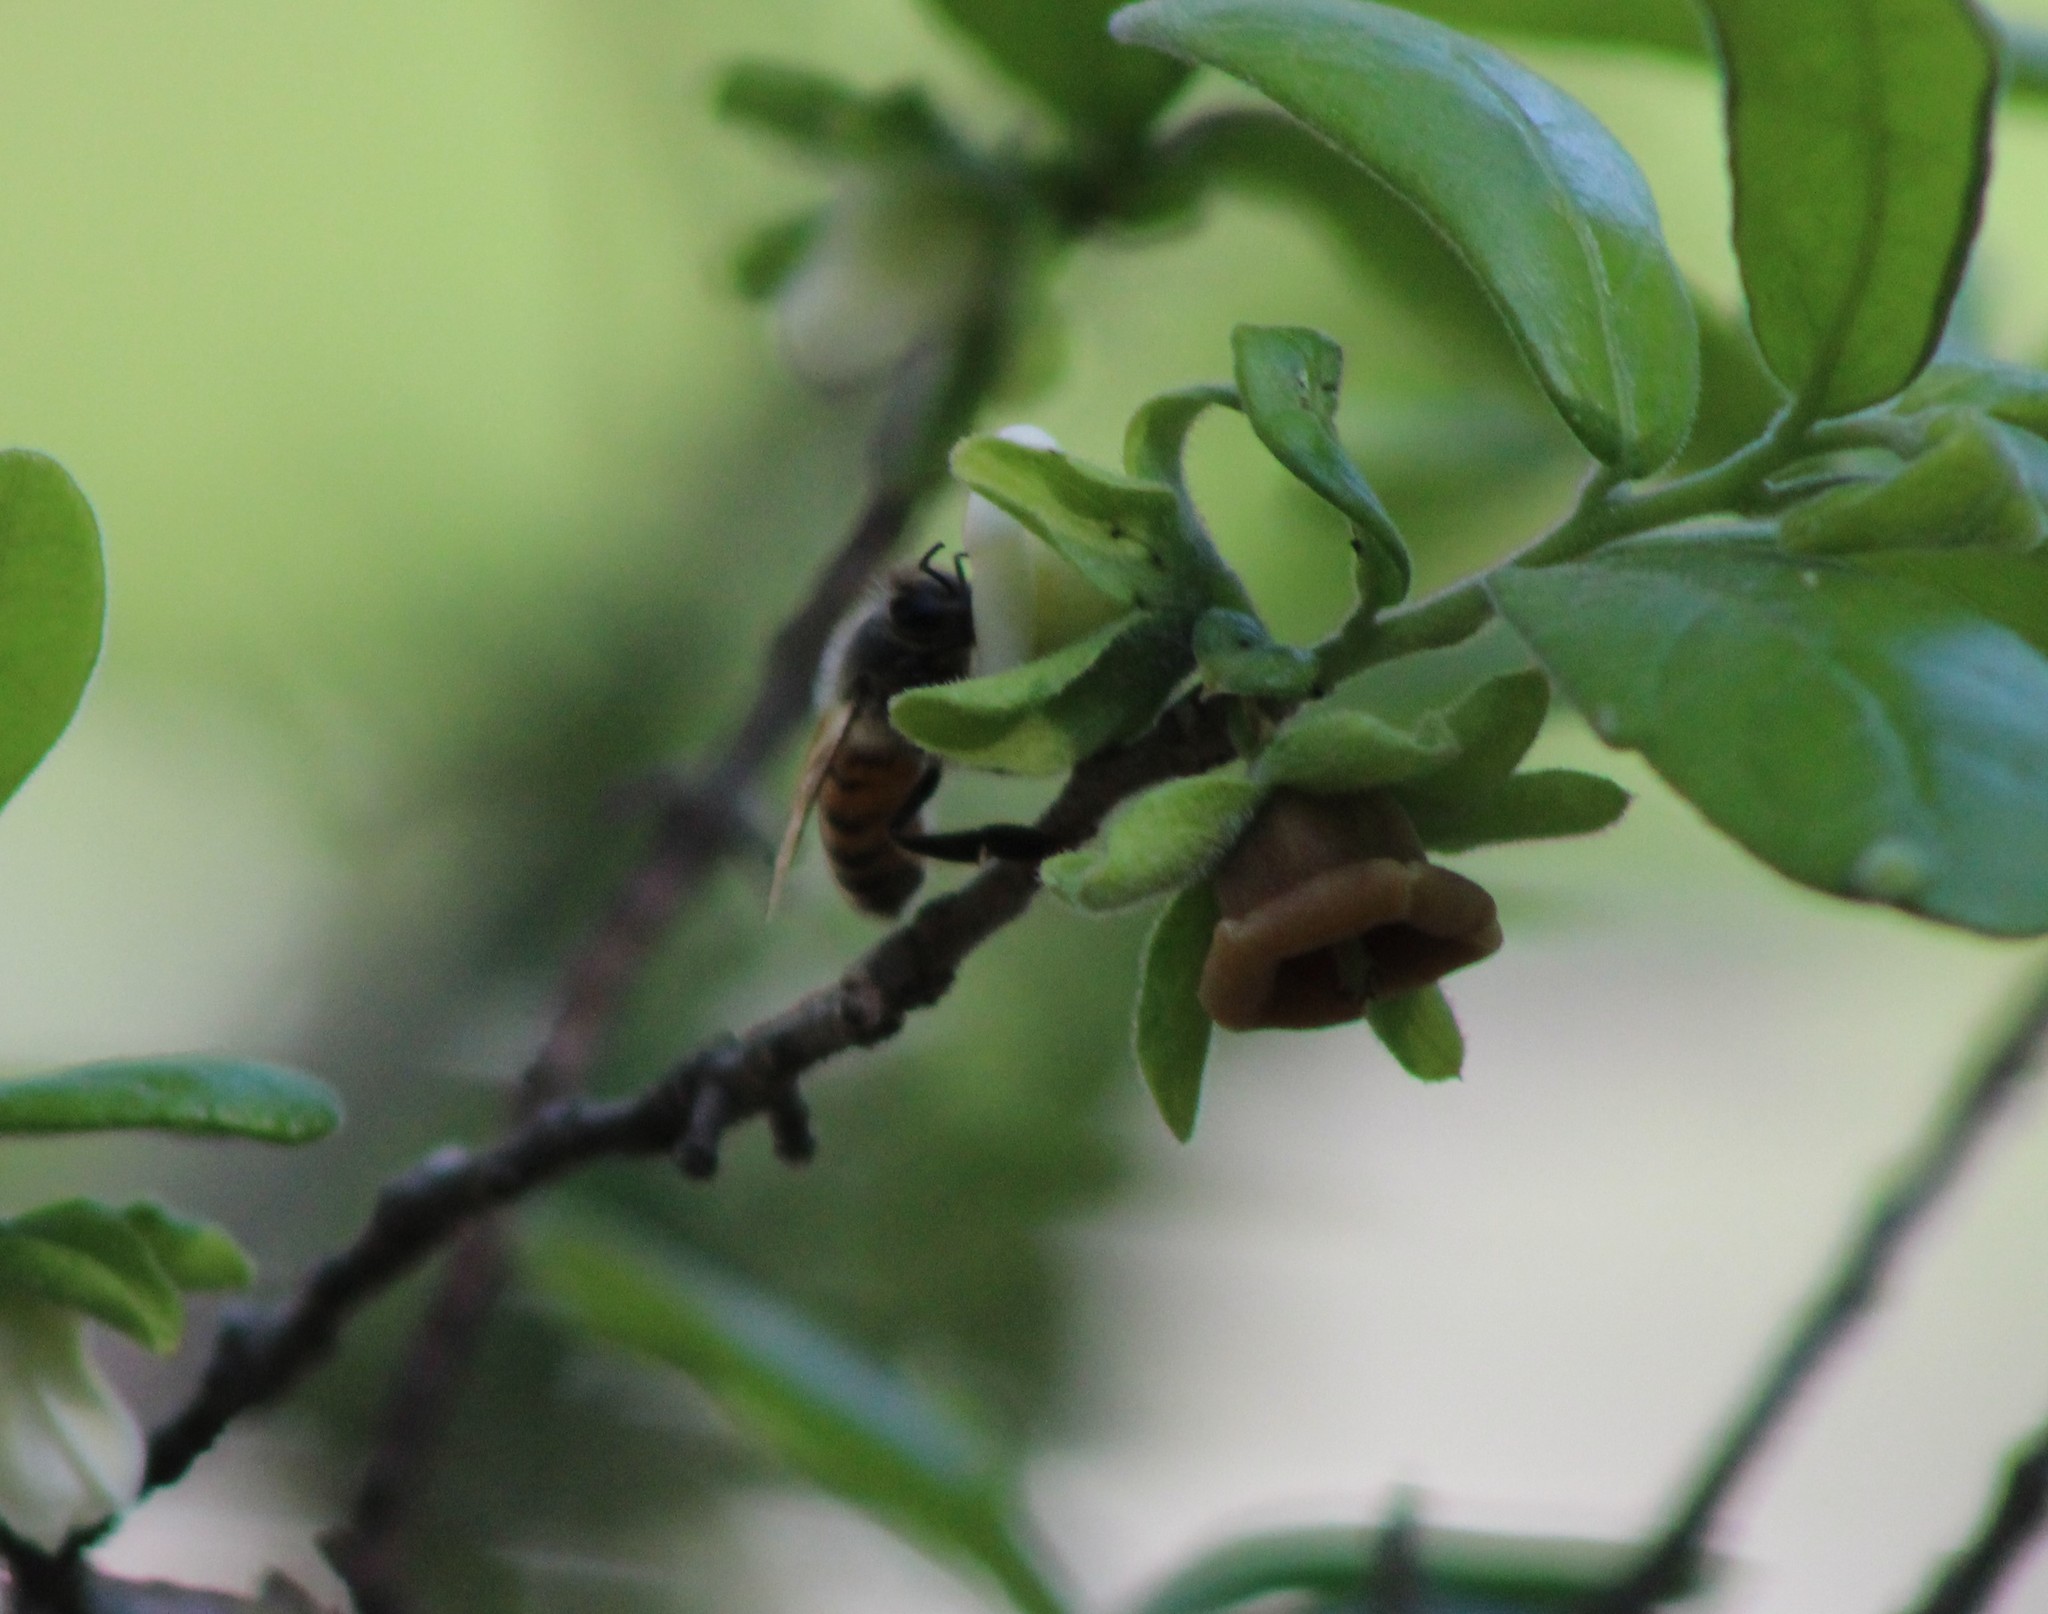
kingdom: Animalia
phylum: Arthropoda
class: Insecta
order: Hymenoptera
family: Apidae
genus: Apis
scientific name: Apis mellifera
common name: Honey bee
